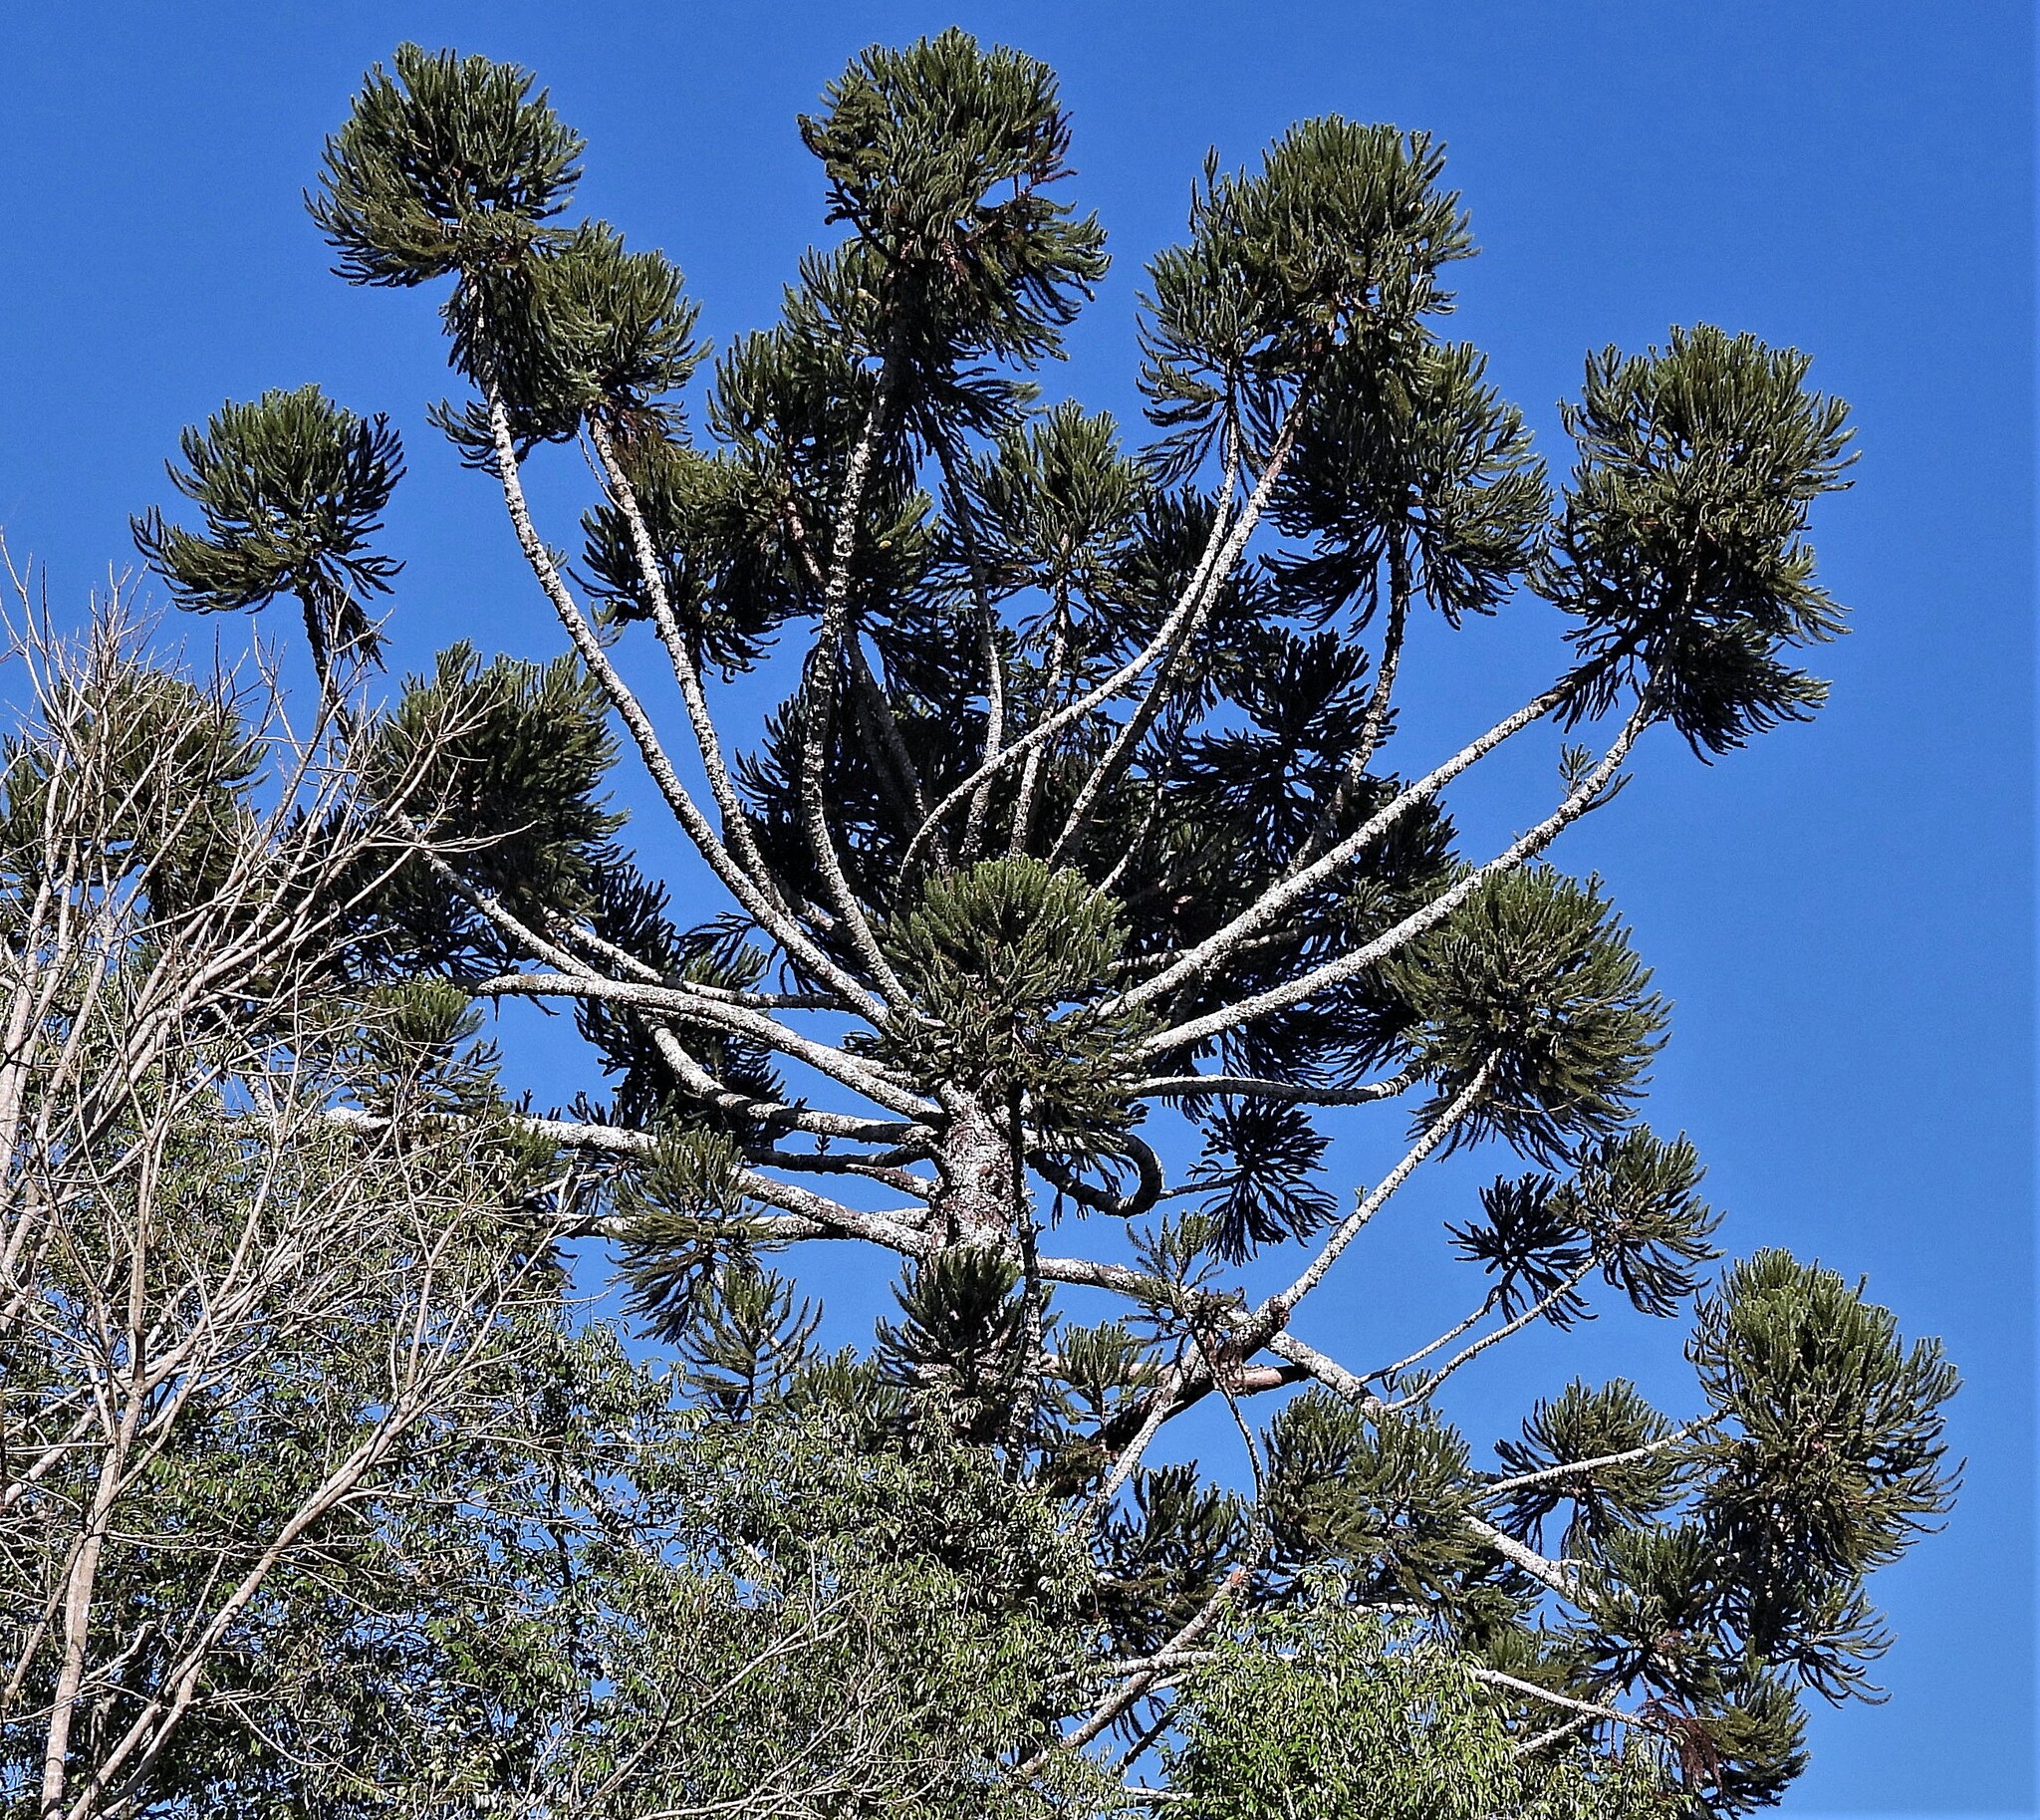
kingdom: Plantae
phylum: Tracheophyta
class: Pinopsida
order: Pinales
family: Araucariaceae
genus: Araucaria
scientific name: Araucaria angustifolia
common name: Candelabra tree
